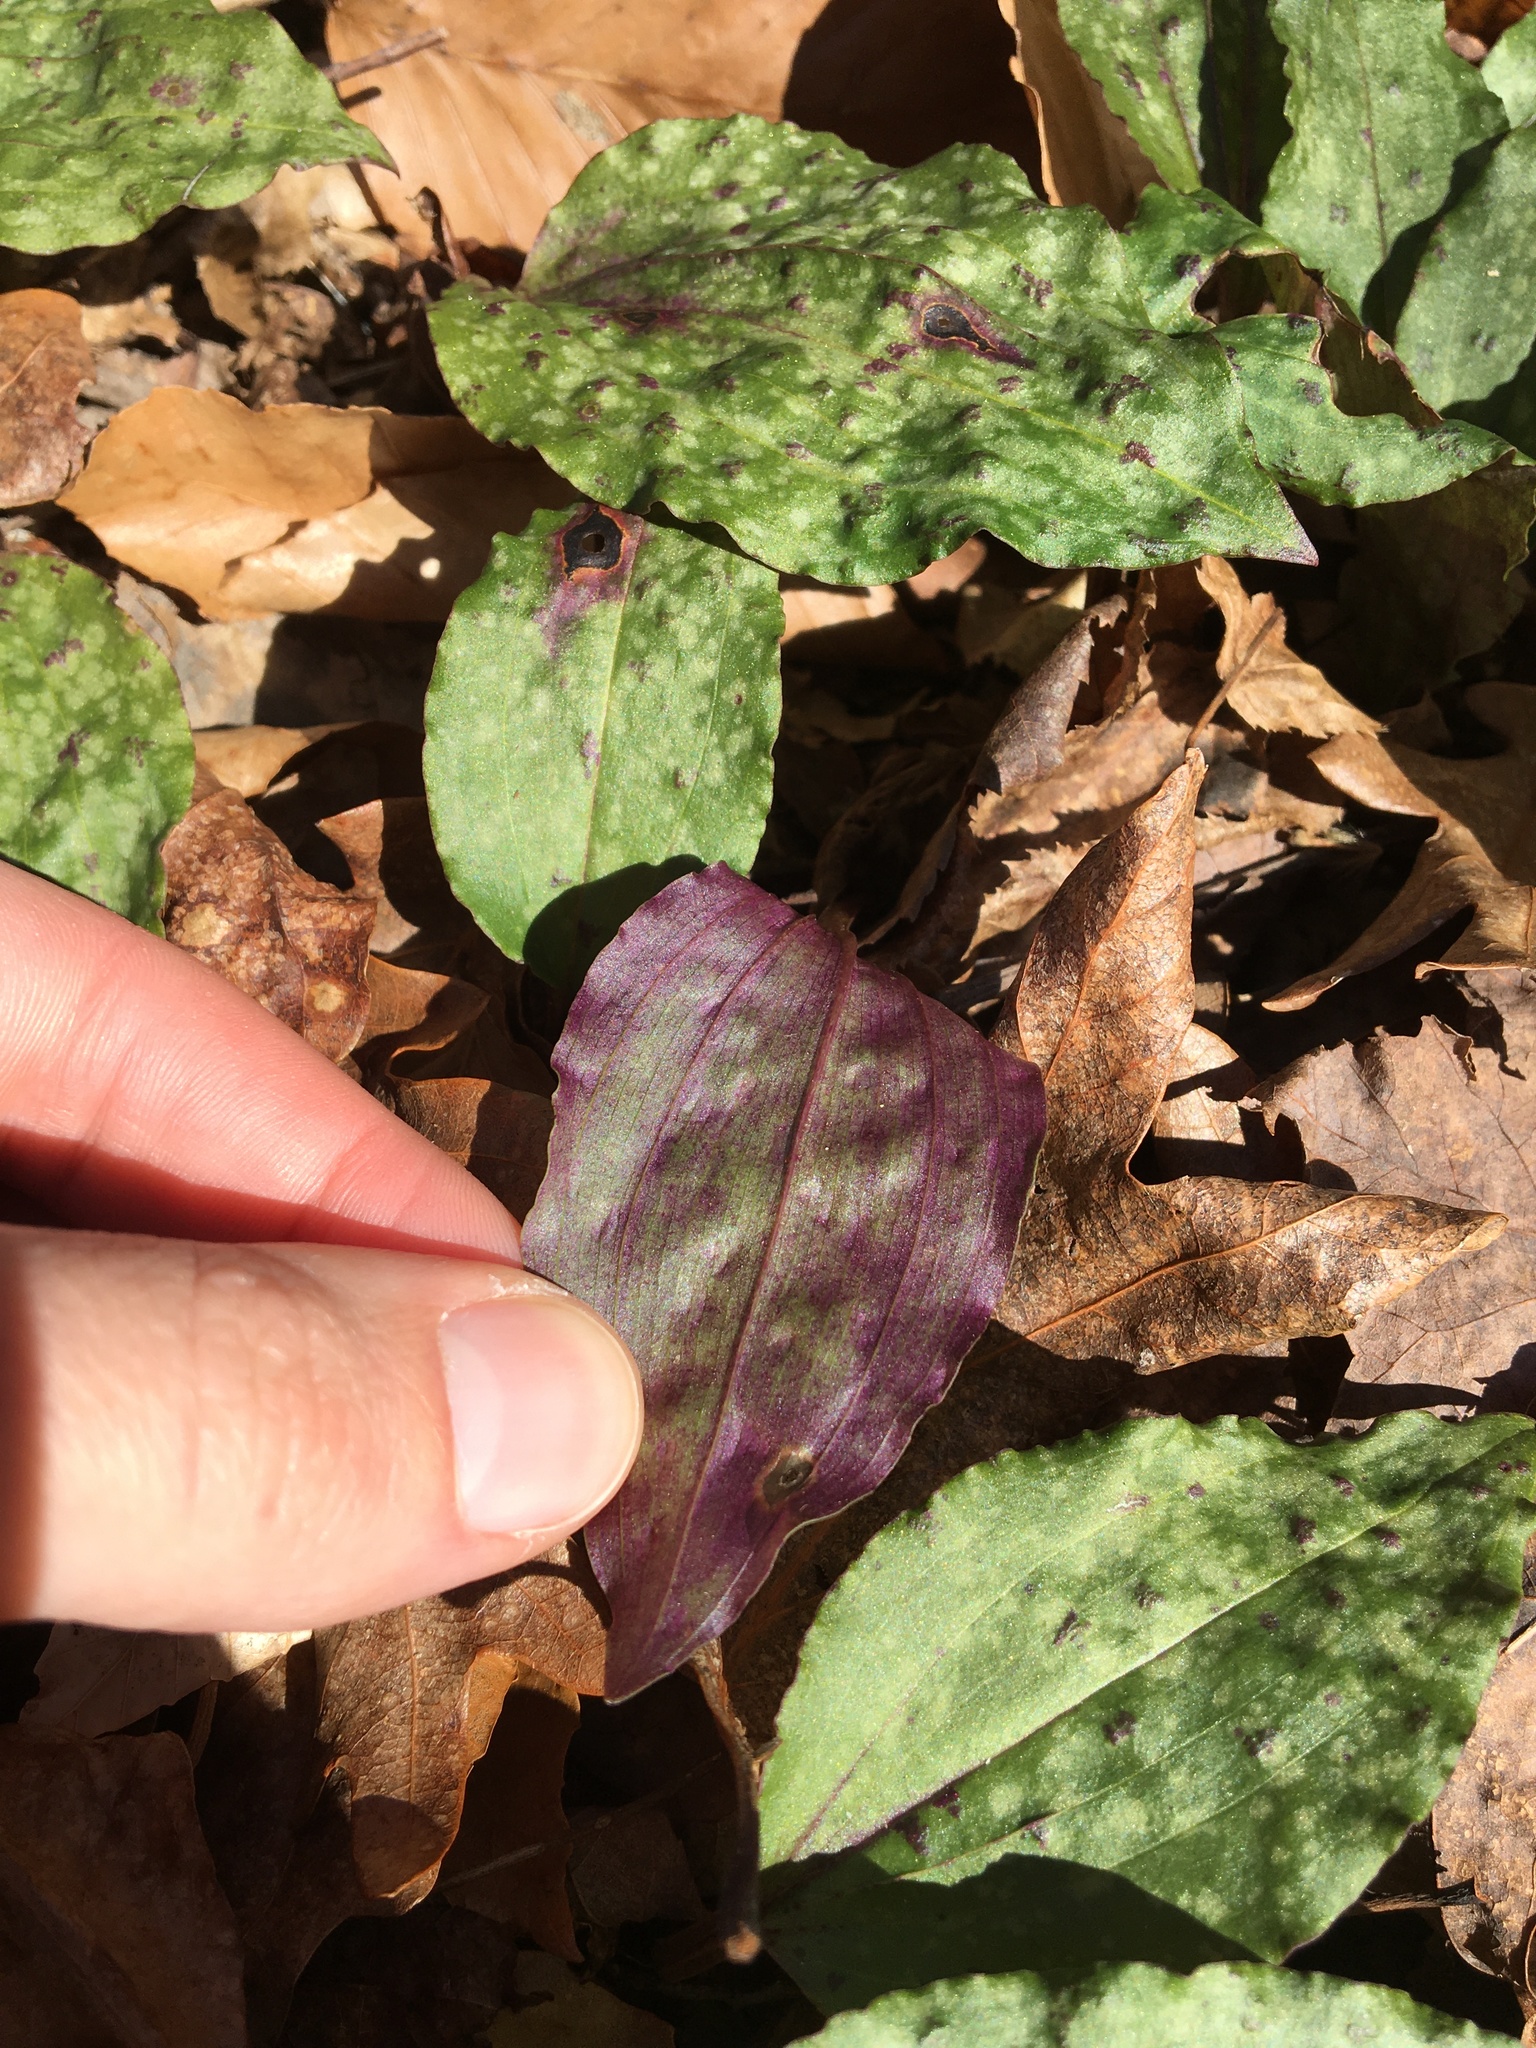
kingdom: Plantae
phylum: Tracheophyta
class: Liliopsida
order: Asparagales
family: Orchidaceae
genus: Tipularia
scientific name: Tipularia discolor
